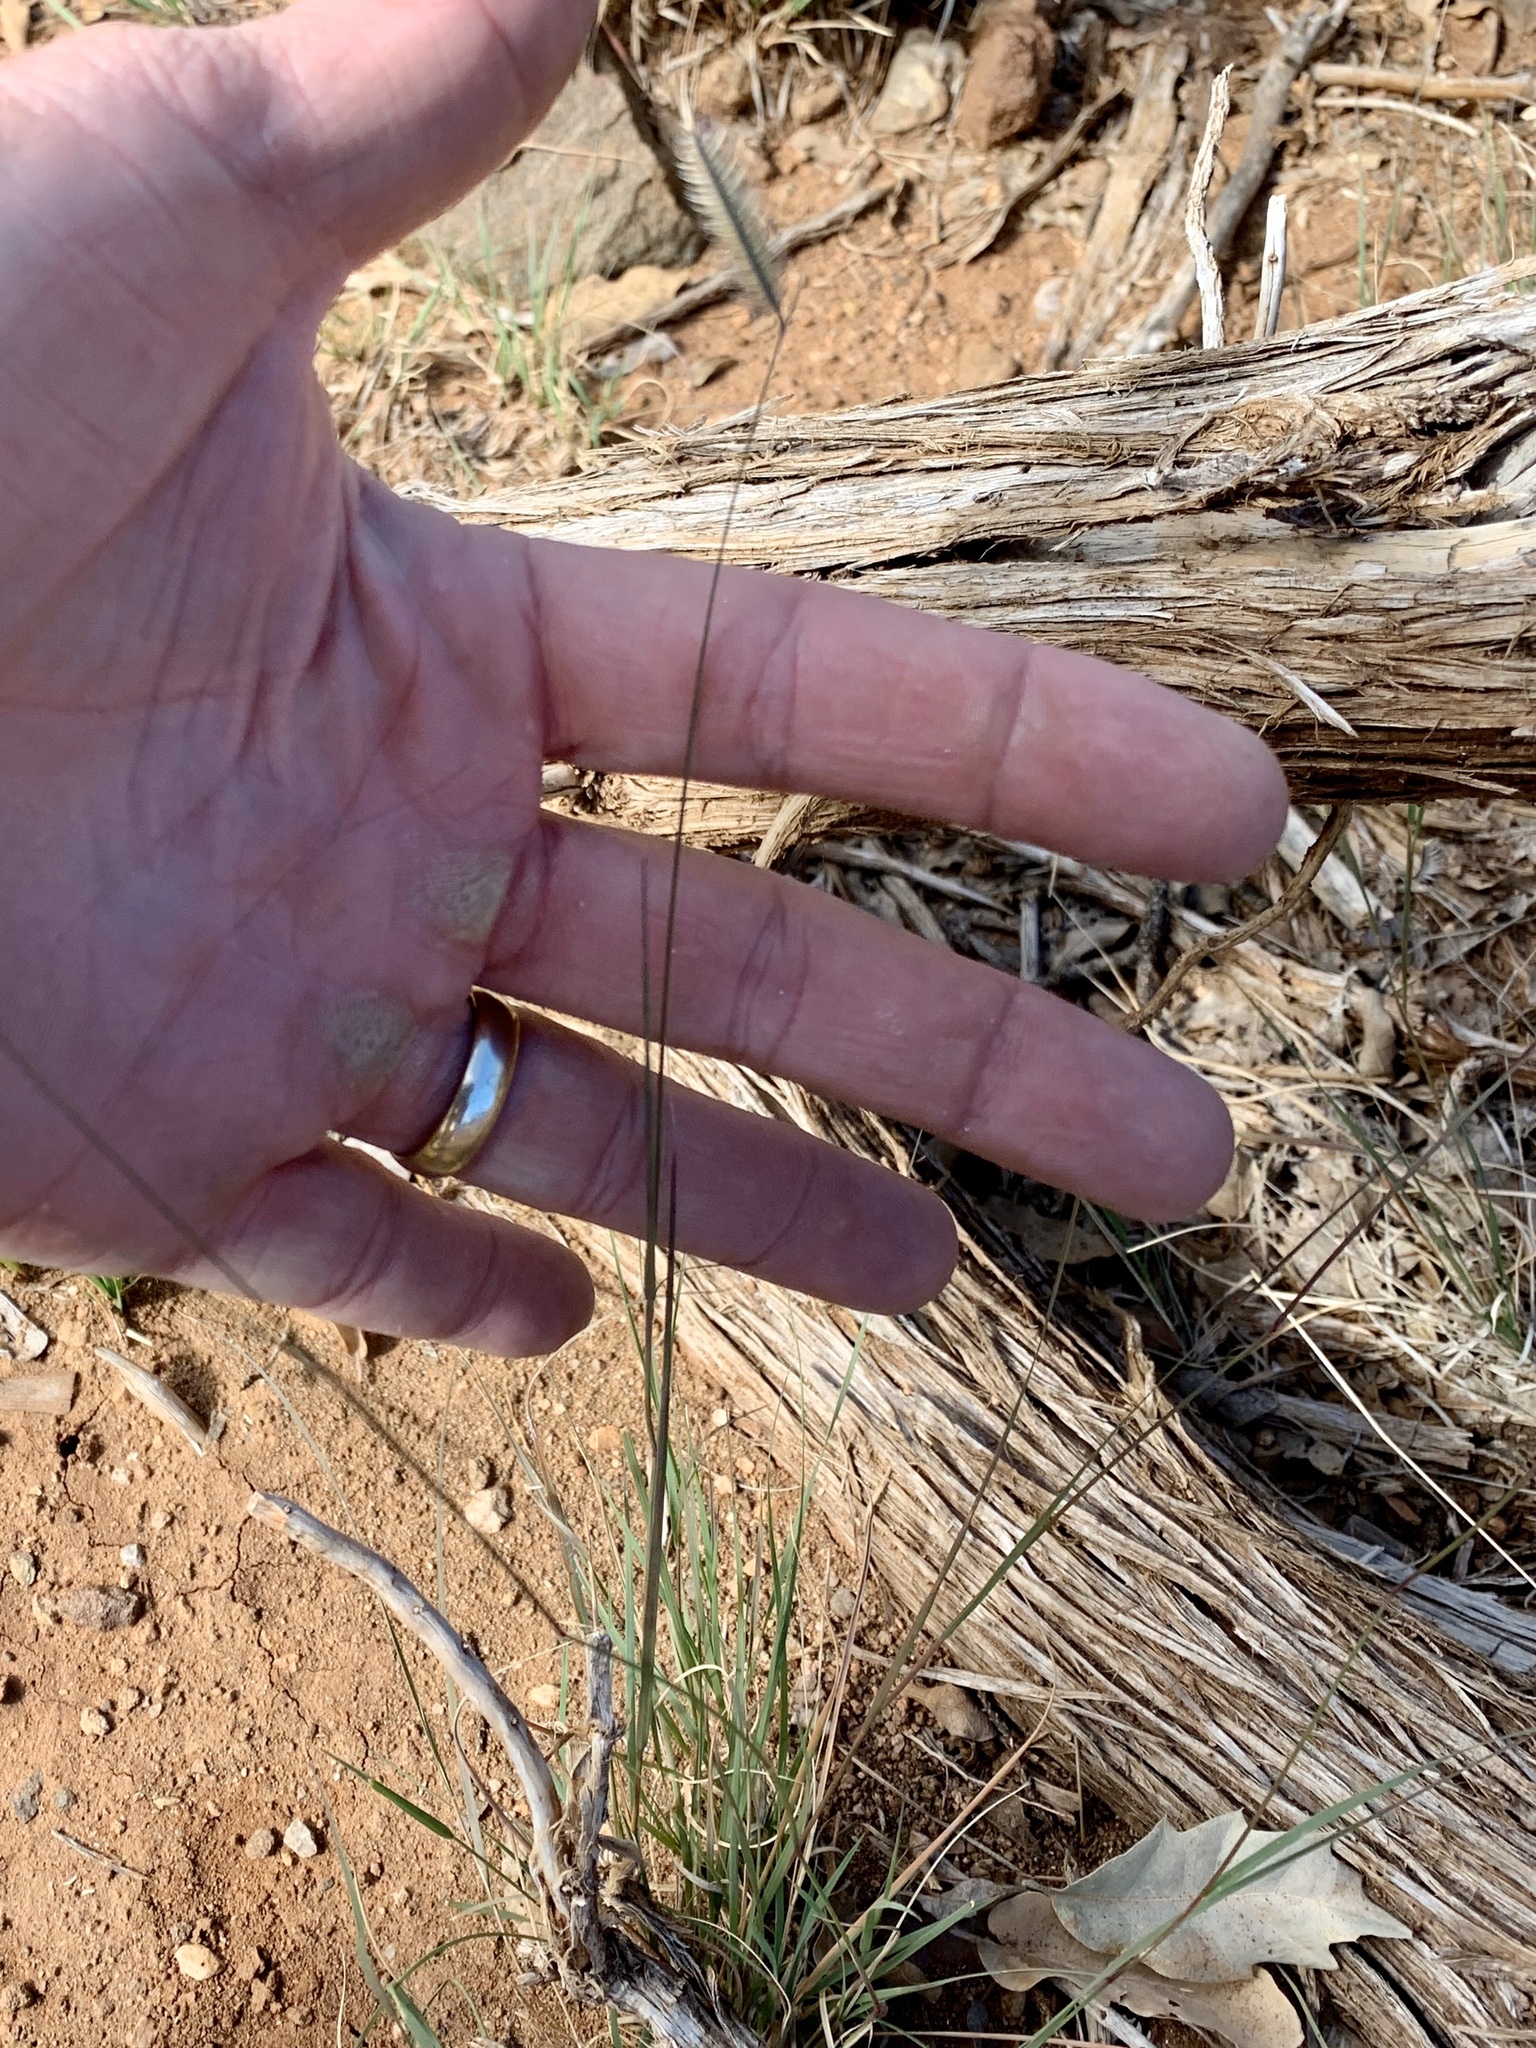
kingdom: Plantae
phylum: Tracheophyta
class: Liliopsida
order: Poales
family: Poaceae
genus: Bouteloua
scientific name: Bouteloua gracilis
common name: Blue grama
